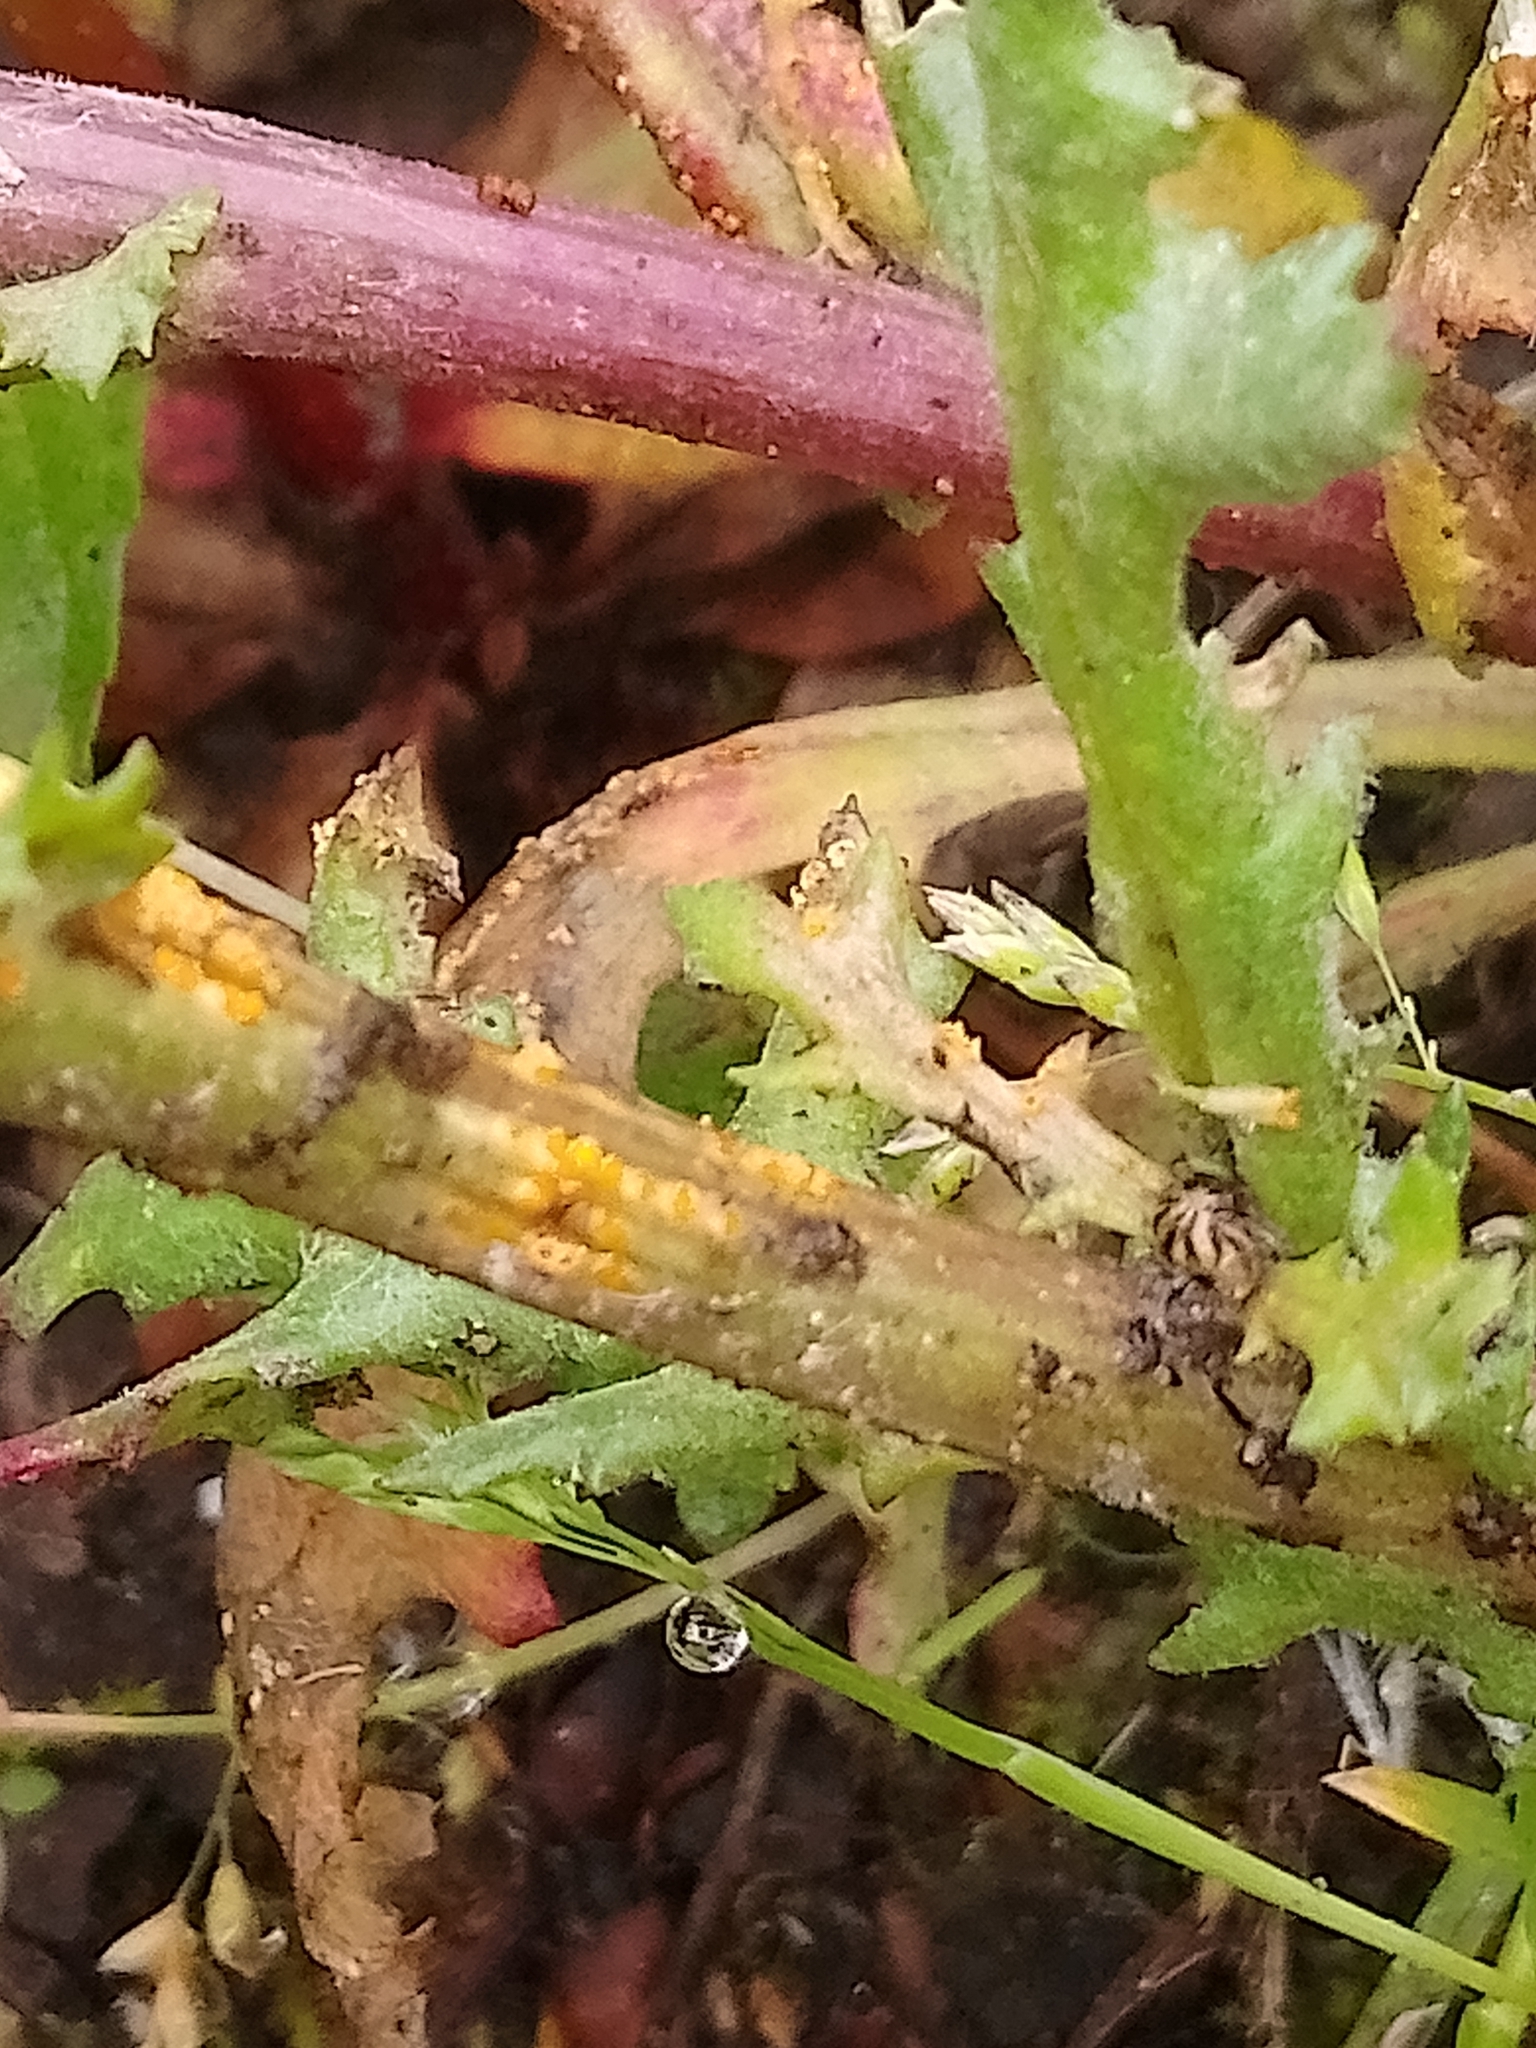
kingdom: Fungi
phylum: Basidiomycota
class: Pucciniomycetes
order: Pucciniales
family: Pucciniaceae
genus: Puccinia
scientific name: Puccinia lagenophorae
